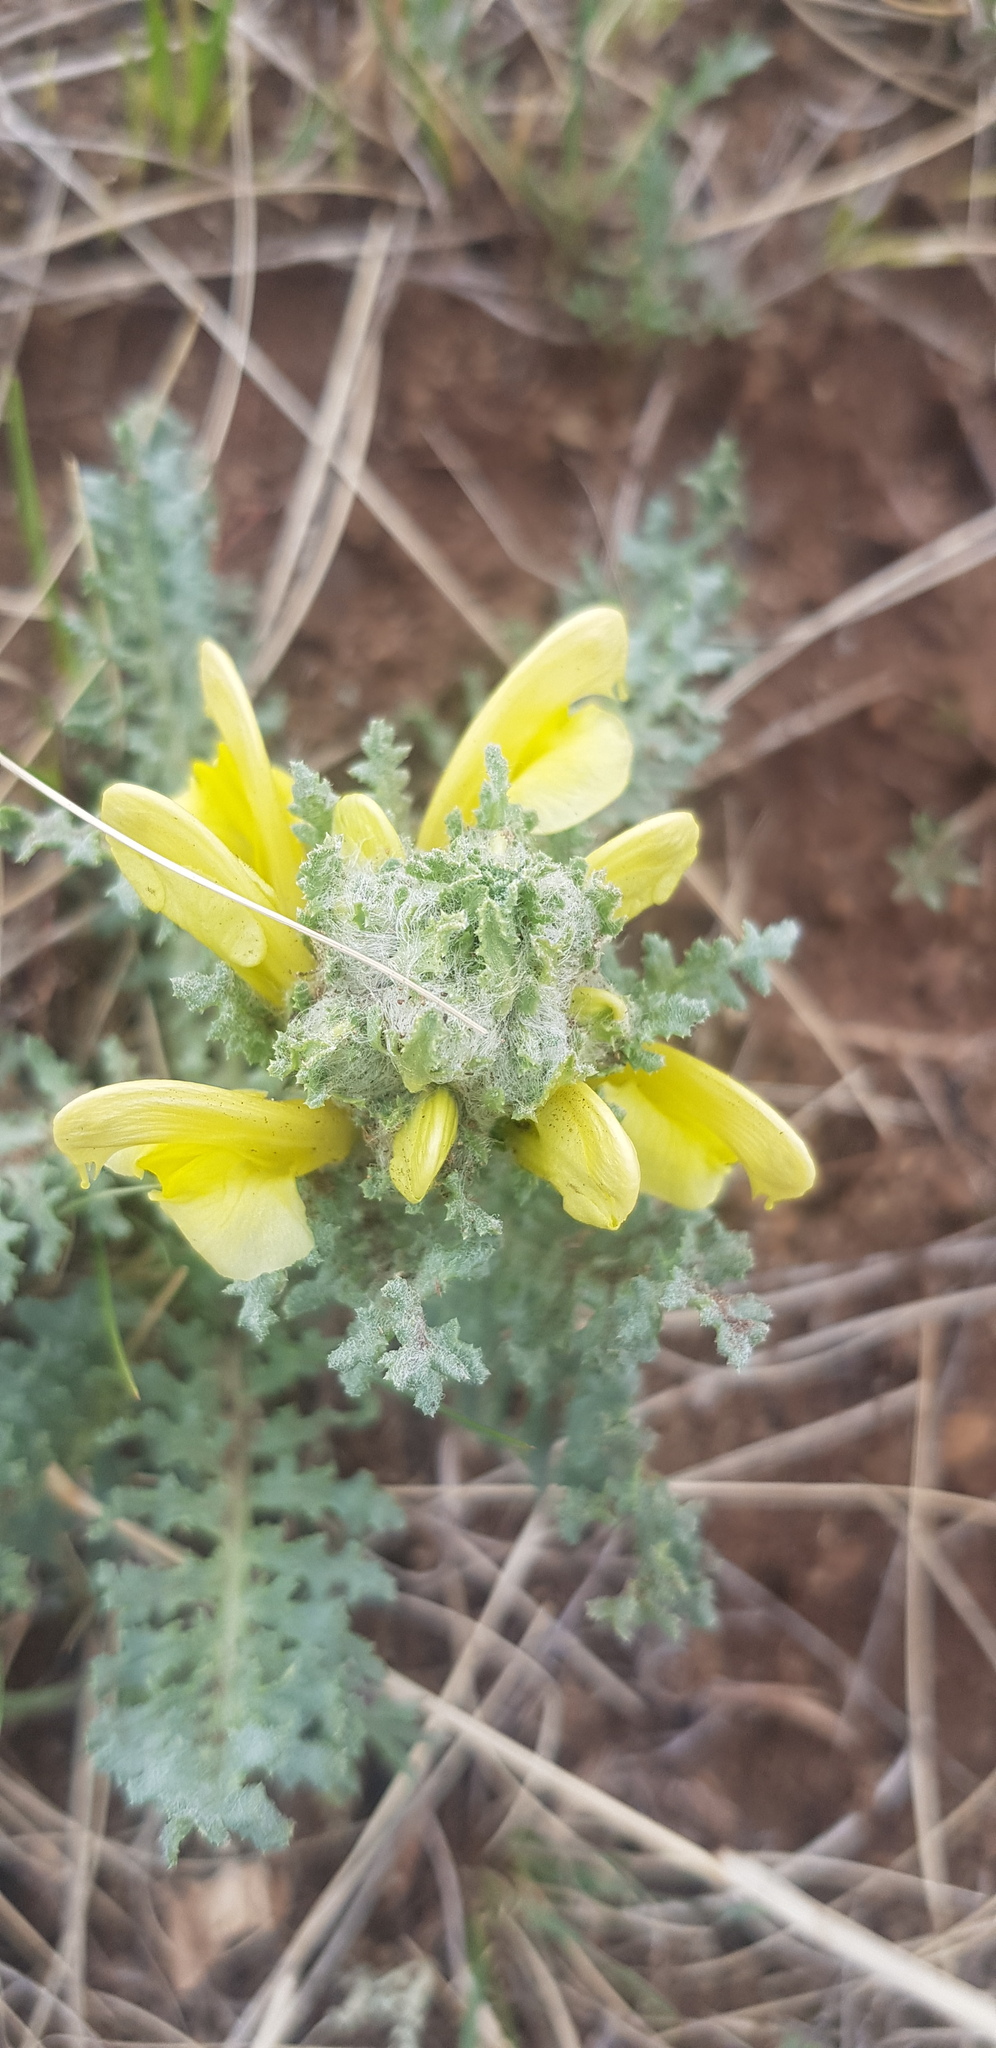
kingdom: Plantae
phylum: Tracheophyta
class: Magnoliopsida
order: Lamiales
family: Orobanchaceae
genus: Pedicularis
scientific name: Pedicularis flava
